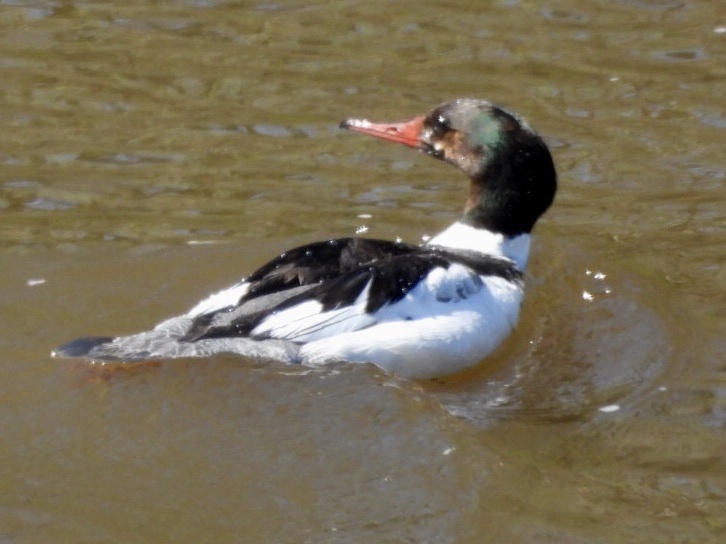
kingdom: Animalia
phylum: Chordata
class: Aves
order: Anseriformes
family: Anatidae
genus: Mergus
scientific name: Mergus merganser
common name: Common merganser
